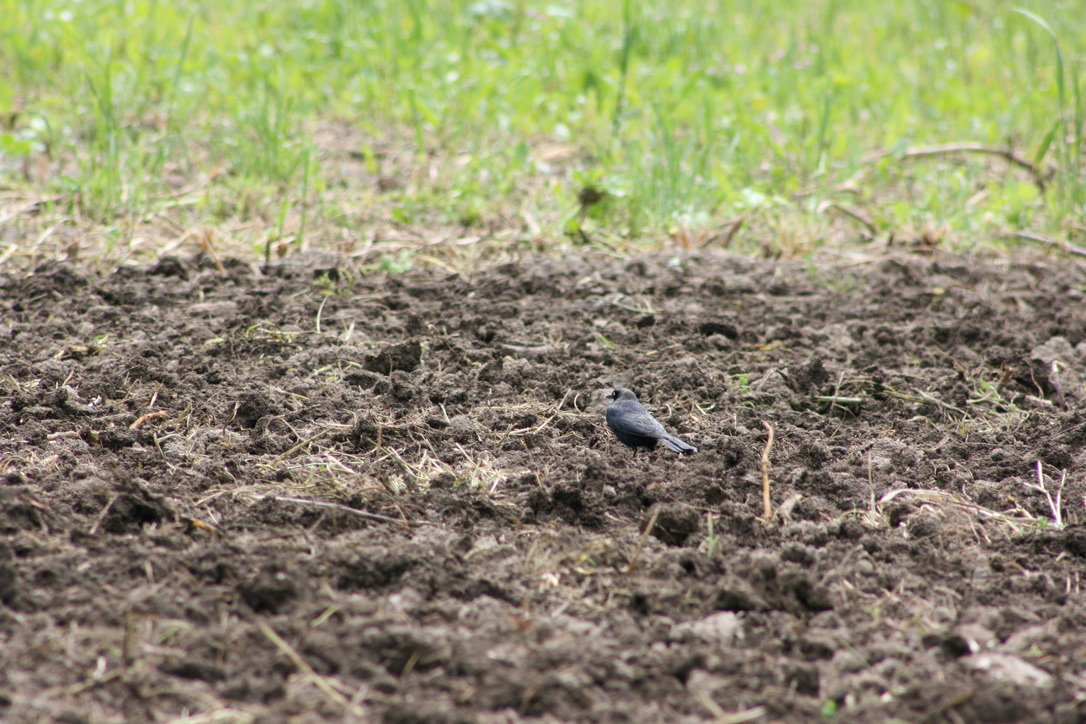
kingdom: Animalia
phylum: Chordata
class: Aves
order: Passeriformes
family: Icteridae
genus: Euphagus
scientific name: Euphagus cyanocephalus
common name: Brewer's blackbird
